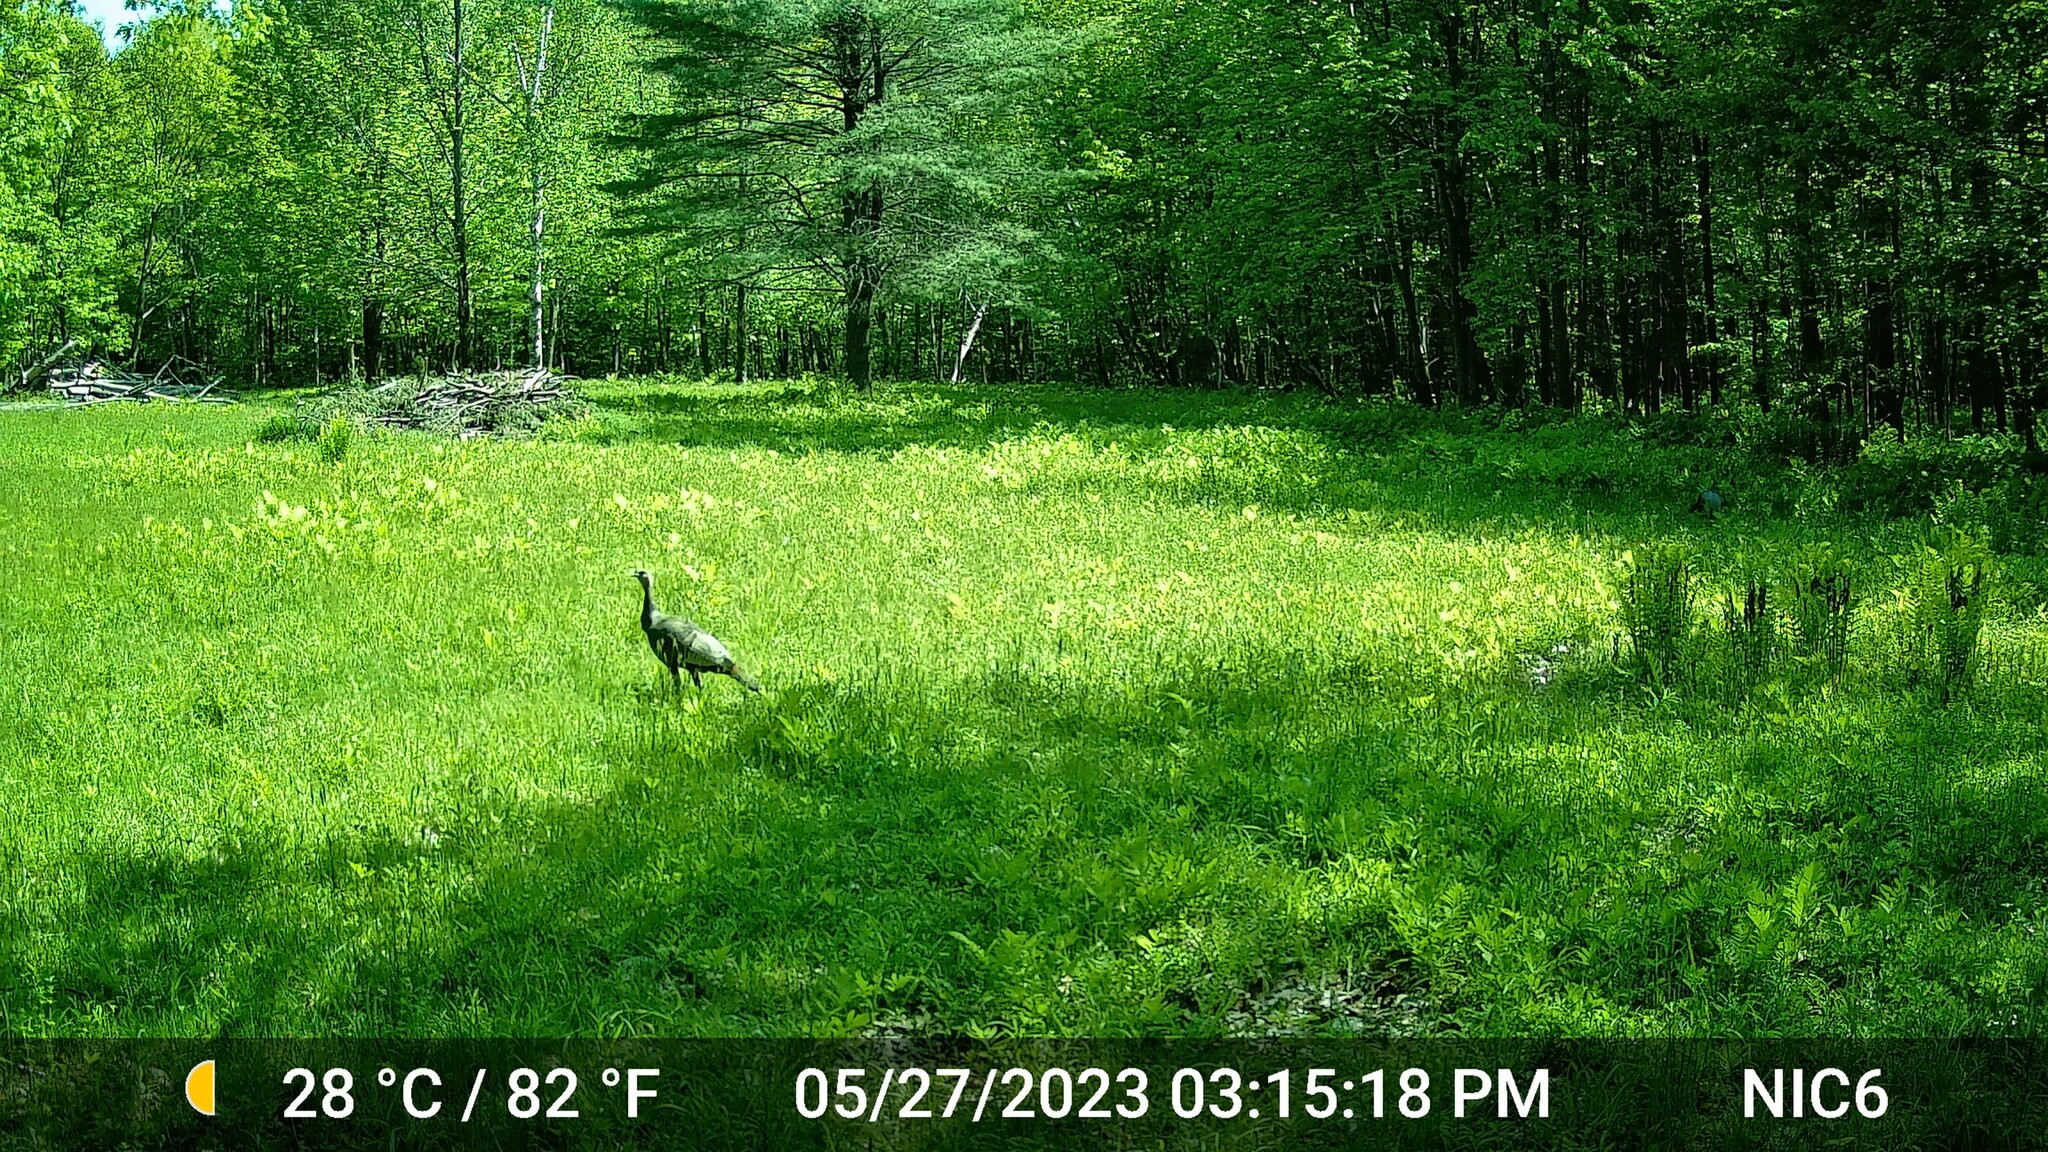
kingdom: Animalia
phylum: Chordata
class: Aves
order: Galliformes
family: Phasianidae
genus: Meleagris
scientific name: Meleagris gallopavo
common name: Wild turkey
